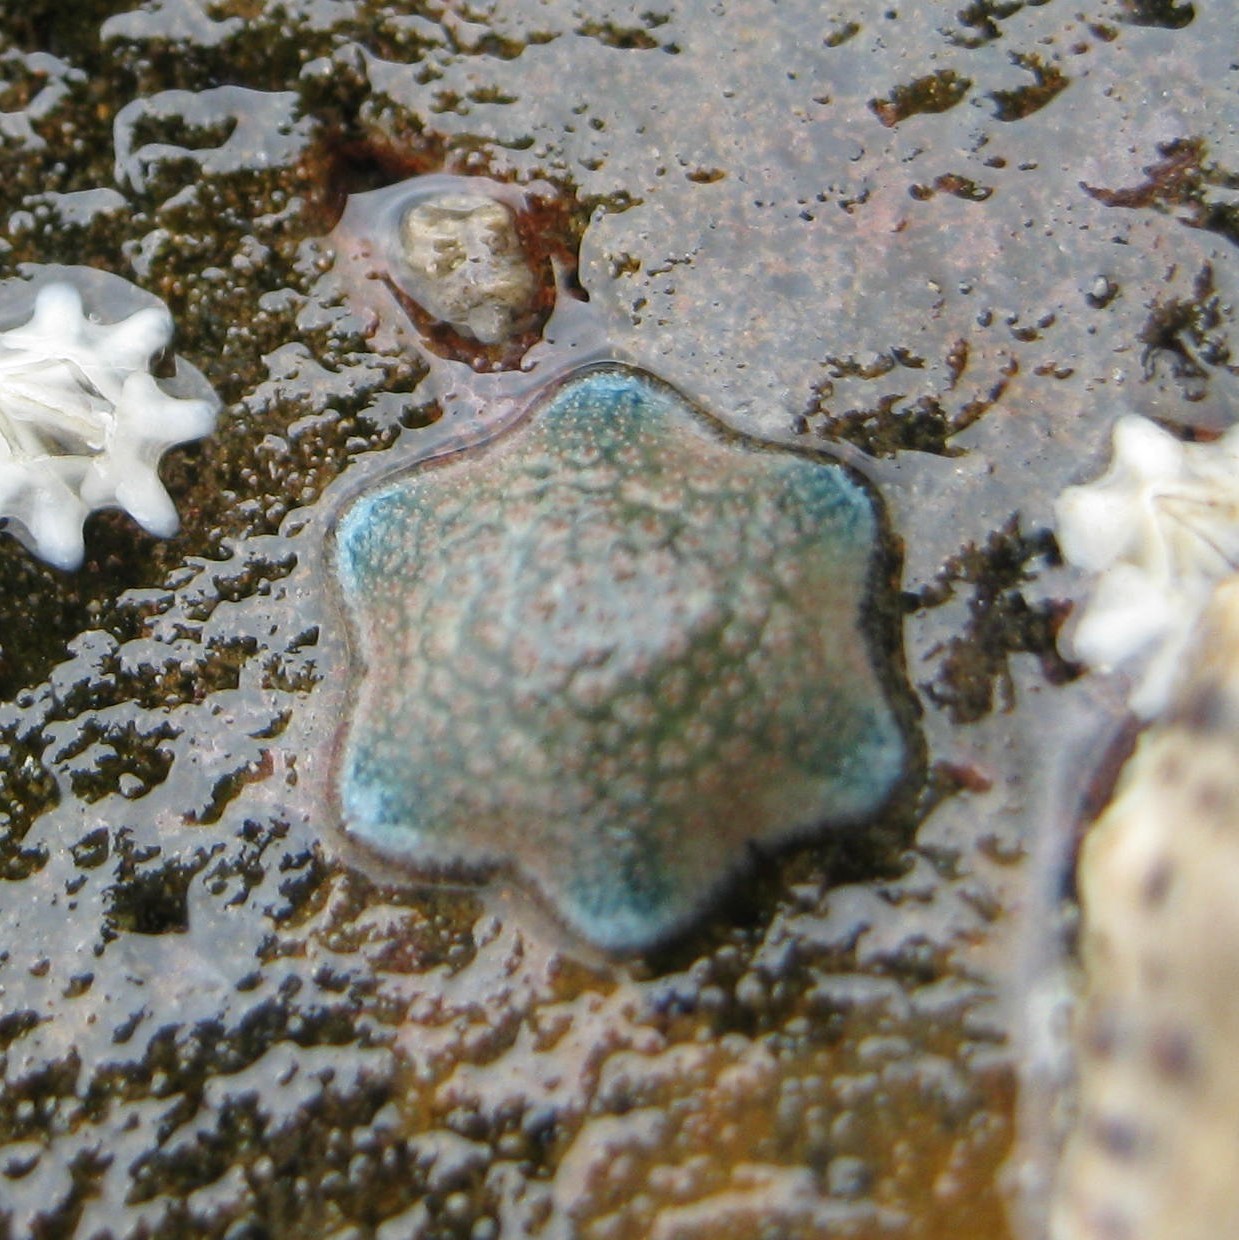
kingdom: Animalia
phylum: Echinodermata
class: Asteroidea
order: Valvatida
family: Asterinidae
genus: Patiriella
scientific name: Patiriella regularis
